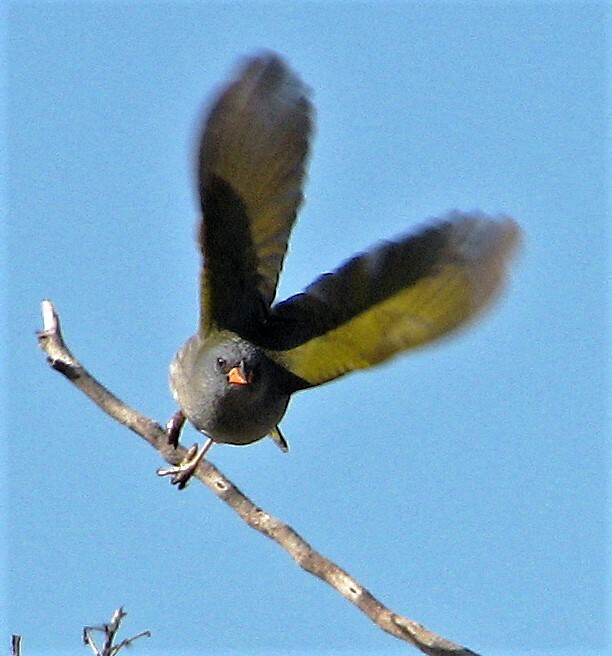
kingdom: Animalia
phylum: Chordata
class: Aves
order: Passeriformes
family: Thraupidae
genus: Embernagra
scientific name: Embernagra platensis
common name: Pampa finch
